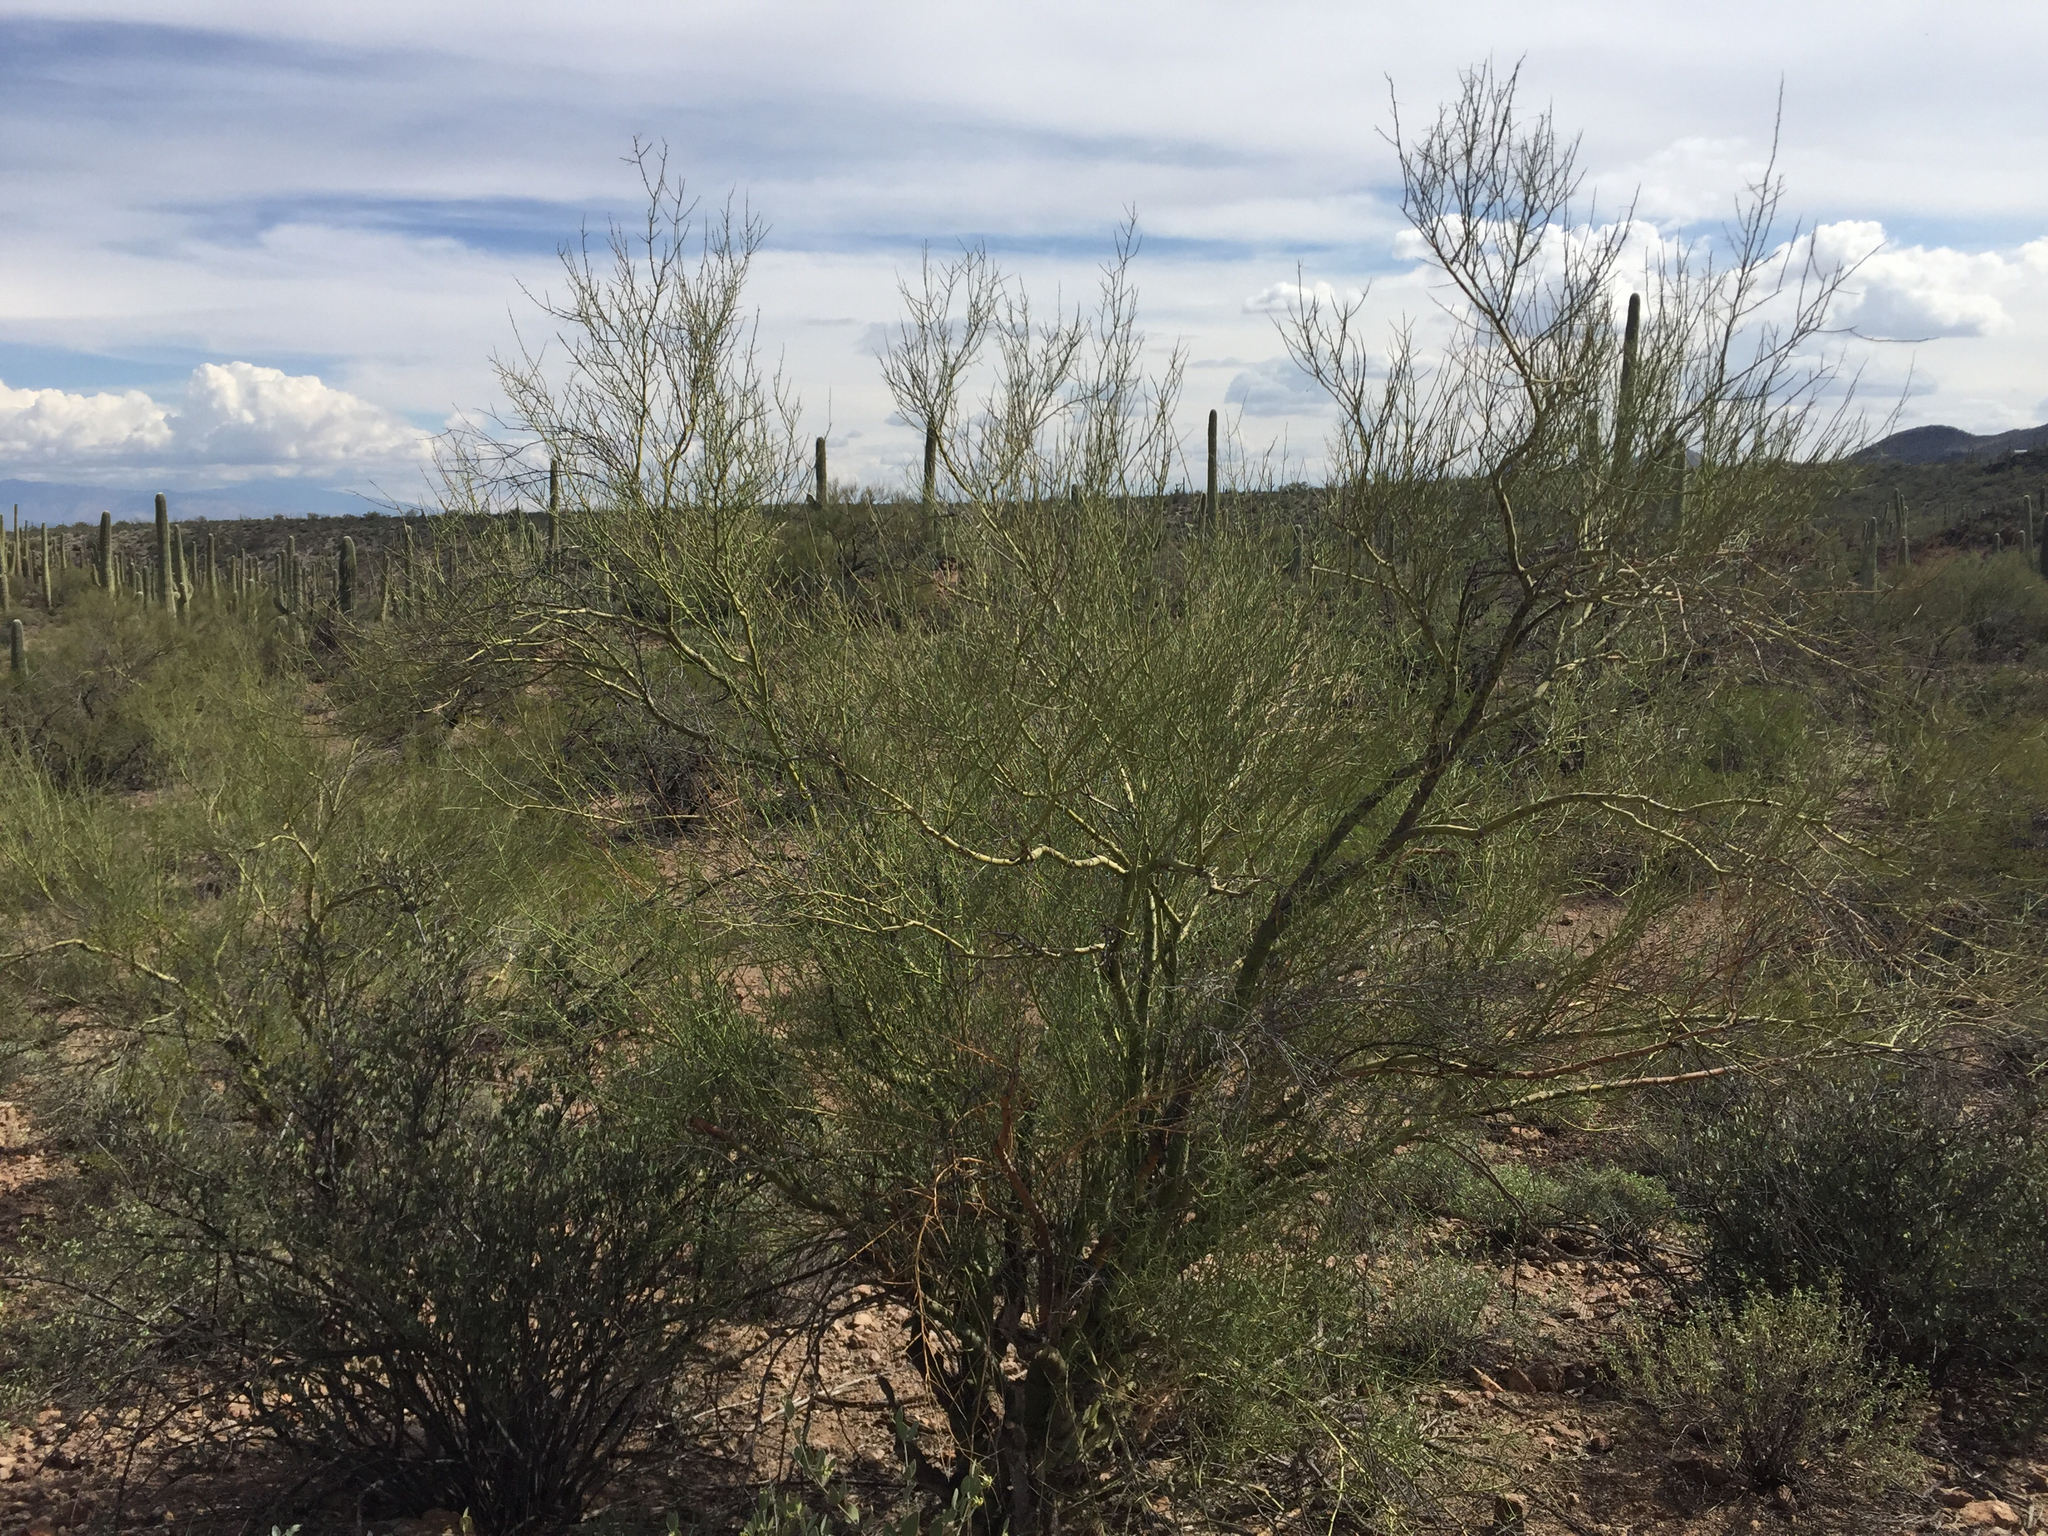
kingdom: Plantae
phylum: Tracheophyta
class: Magnoliopsida
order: Fabales
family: Fabaceae
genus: Parkinsonia
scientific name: Parkinsonia microphylla
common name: Yellow paloverde
